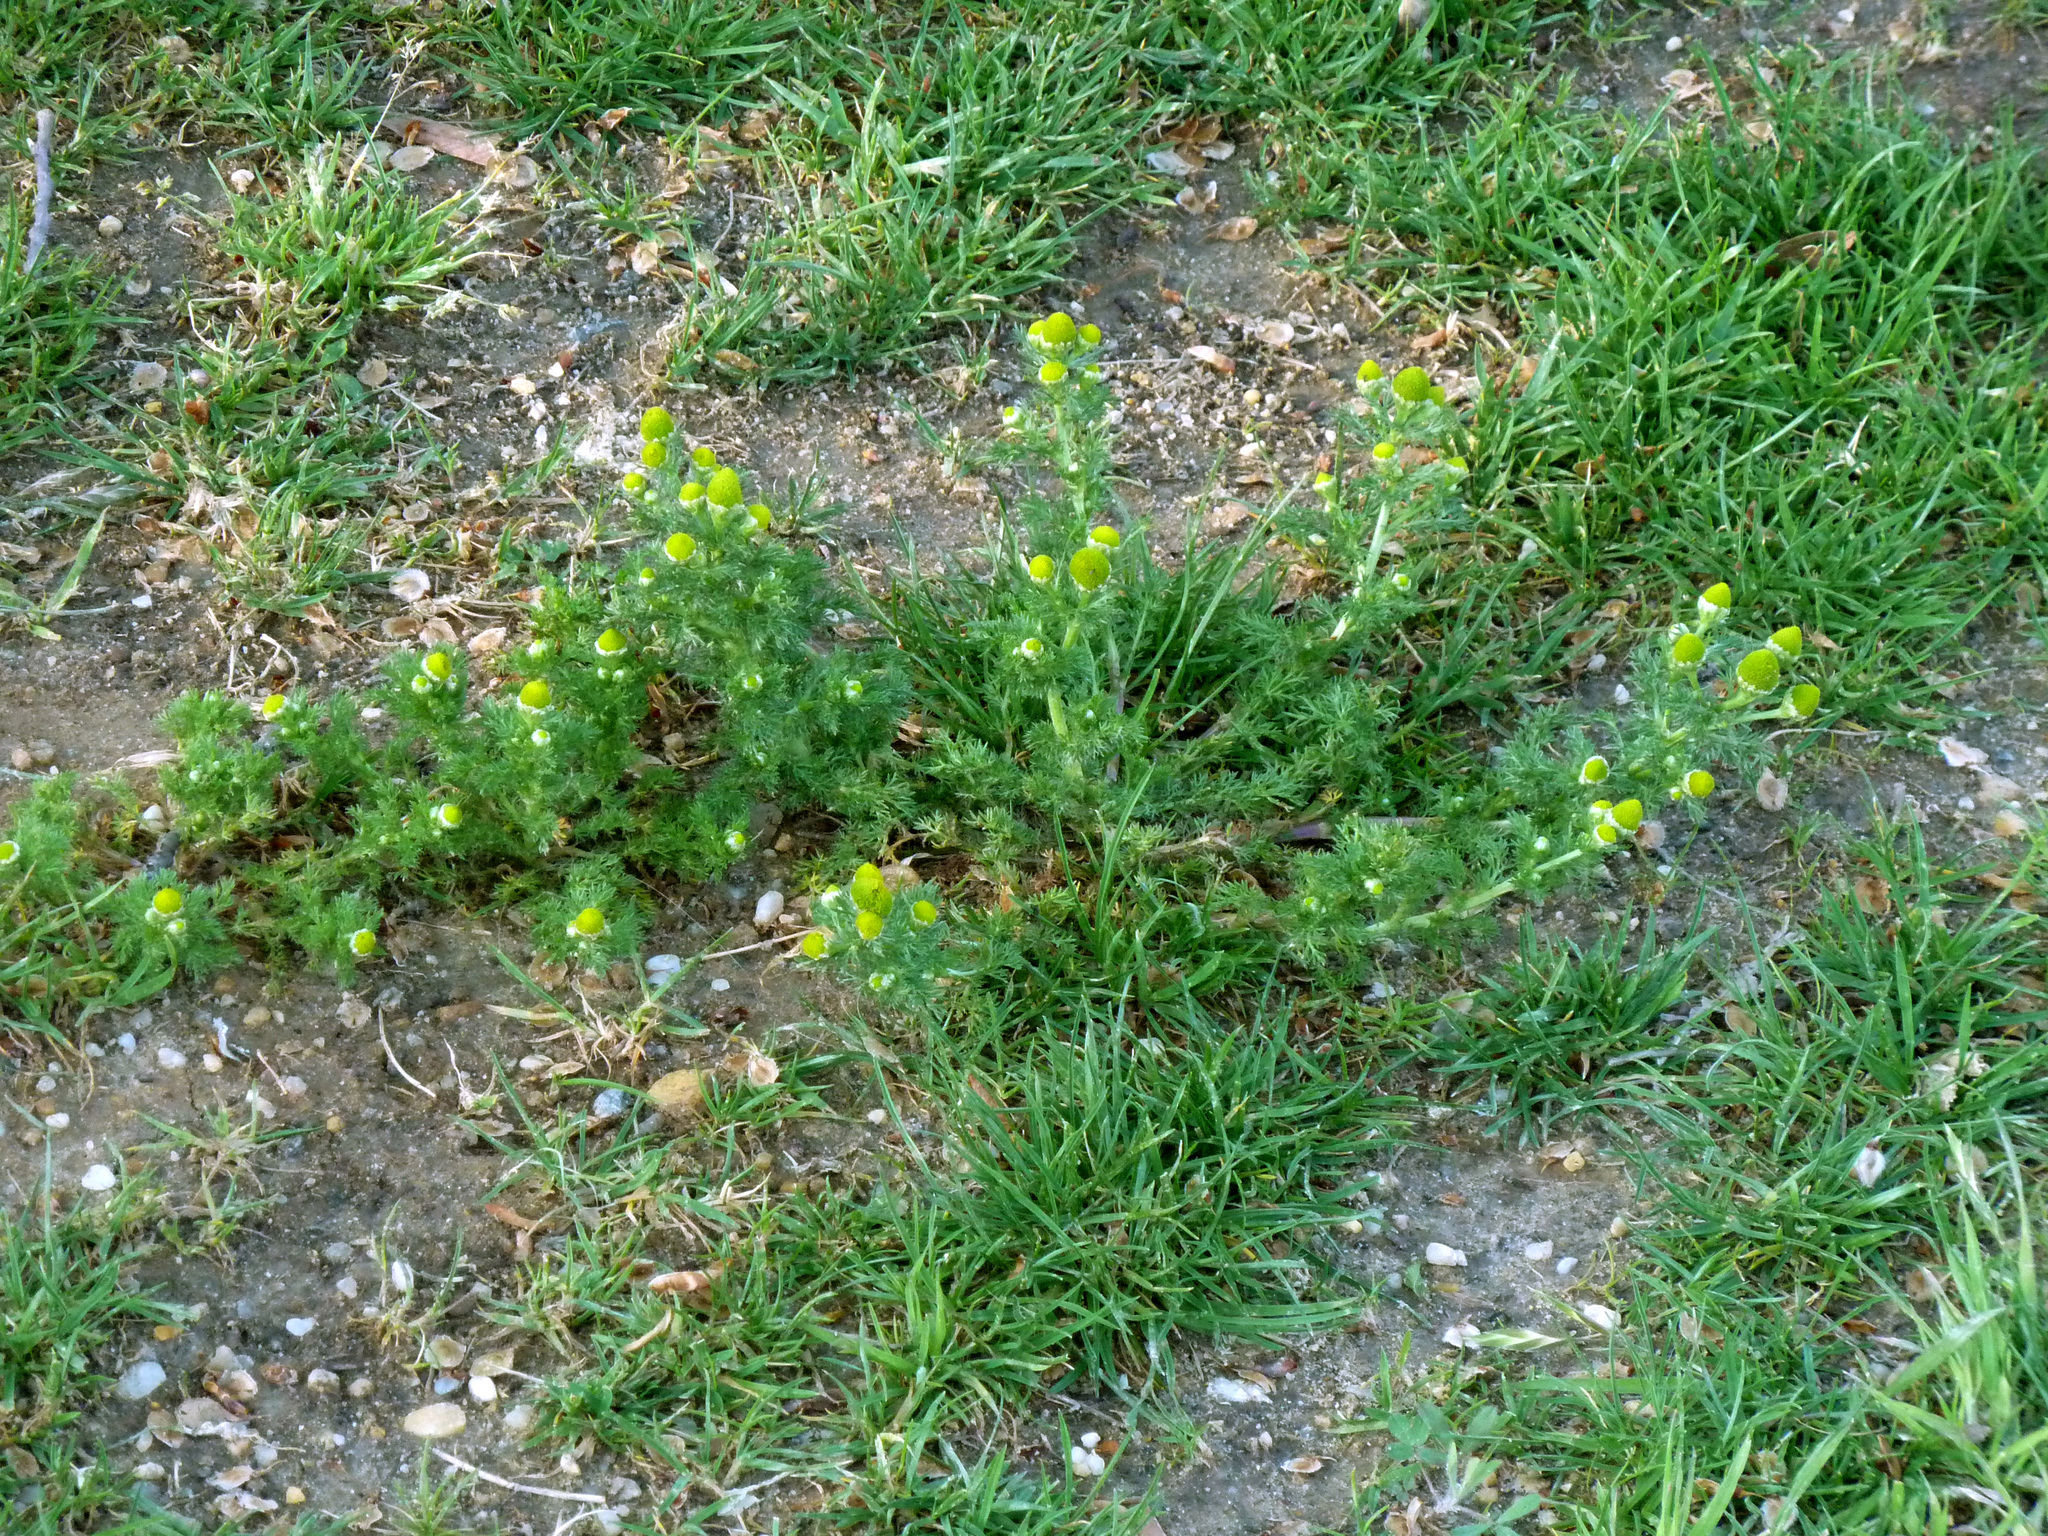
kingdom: Plantae
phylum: Tracheophyta
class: Magnoliopsida
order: Asterales
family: Asteraceae
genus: Matricaria
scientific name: Matricaria discoidea
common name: Disc mayweed
